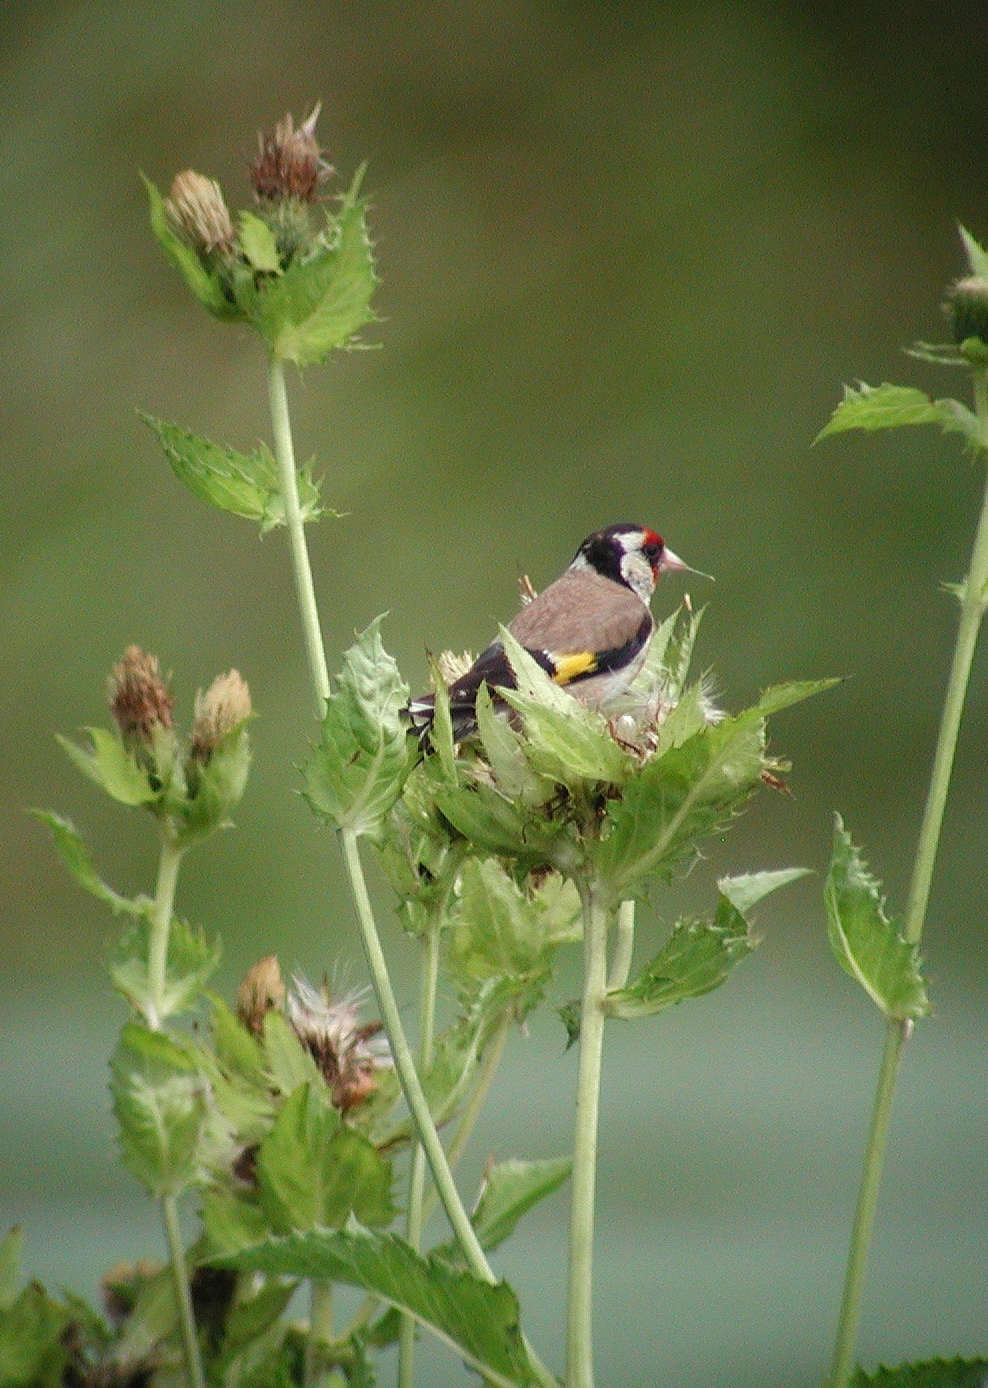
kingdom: Animalia
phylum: Chordata
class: Aves
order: Passeriformes
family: Fringillidae
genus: Carduelis
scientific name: Carduelis carduelis
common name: European goldfinch
